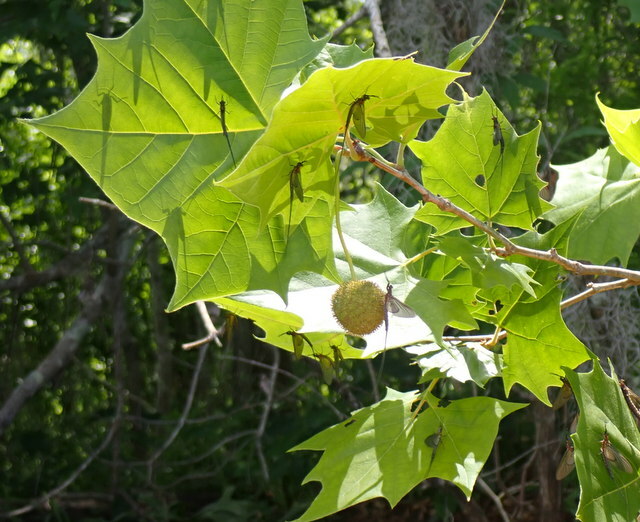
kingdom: Plantae
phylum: Tracheophyta
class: Magnoliopsida
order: Proteales
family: Platanaceae
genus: Platanus
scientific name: Platanus occidentalis
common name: American sycamore
